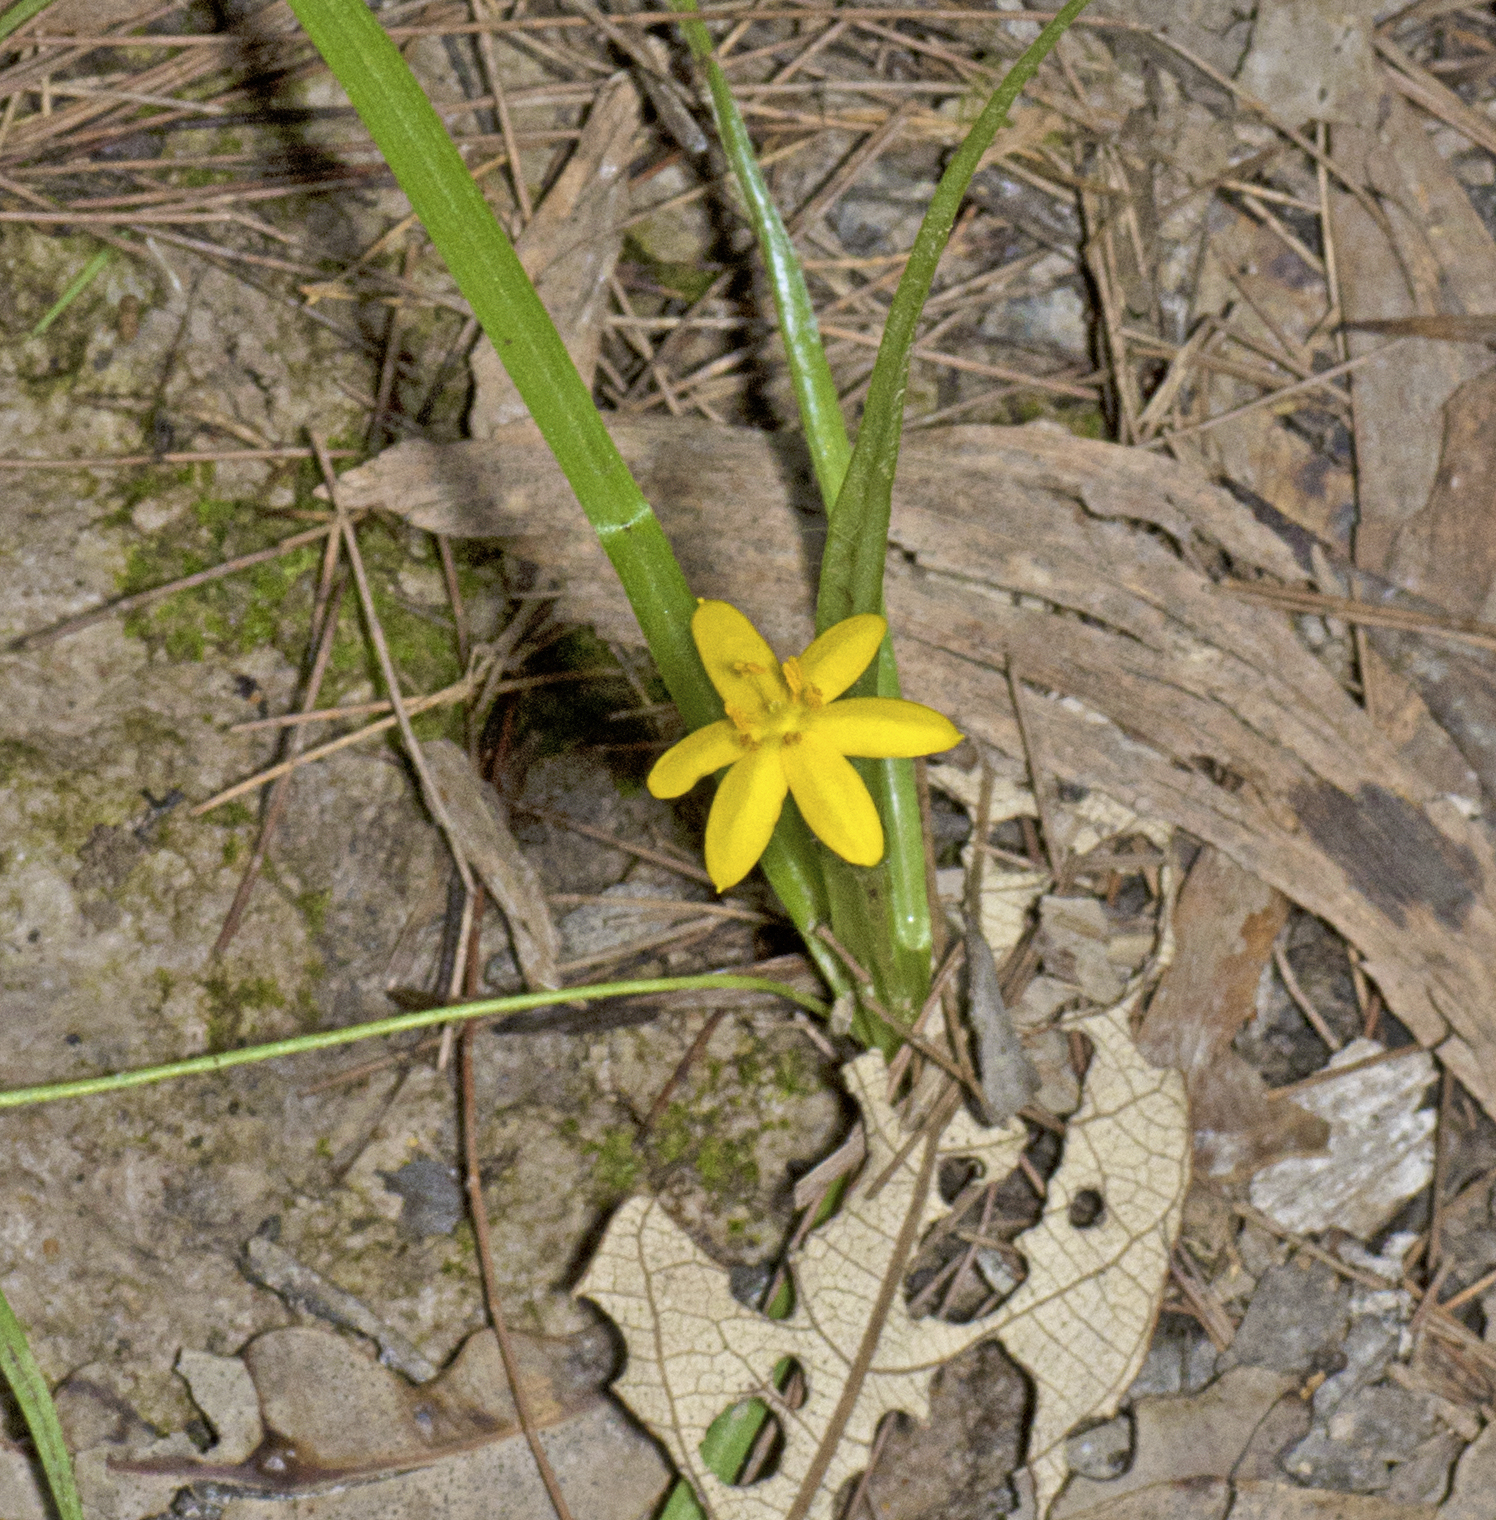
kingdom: Plantae
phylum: Tracheophyta
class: Liliopsida
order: Asparagales
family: Hypoxidaceae
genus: Hypoxis
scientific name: Hypoxis hygrometrica
